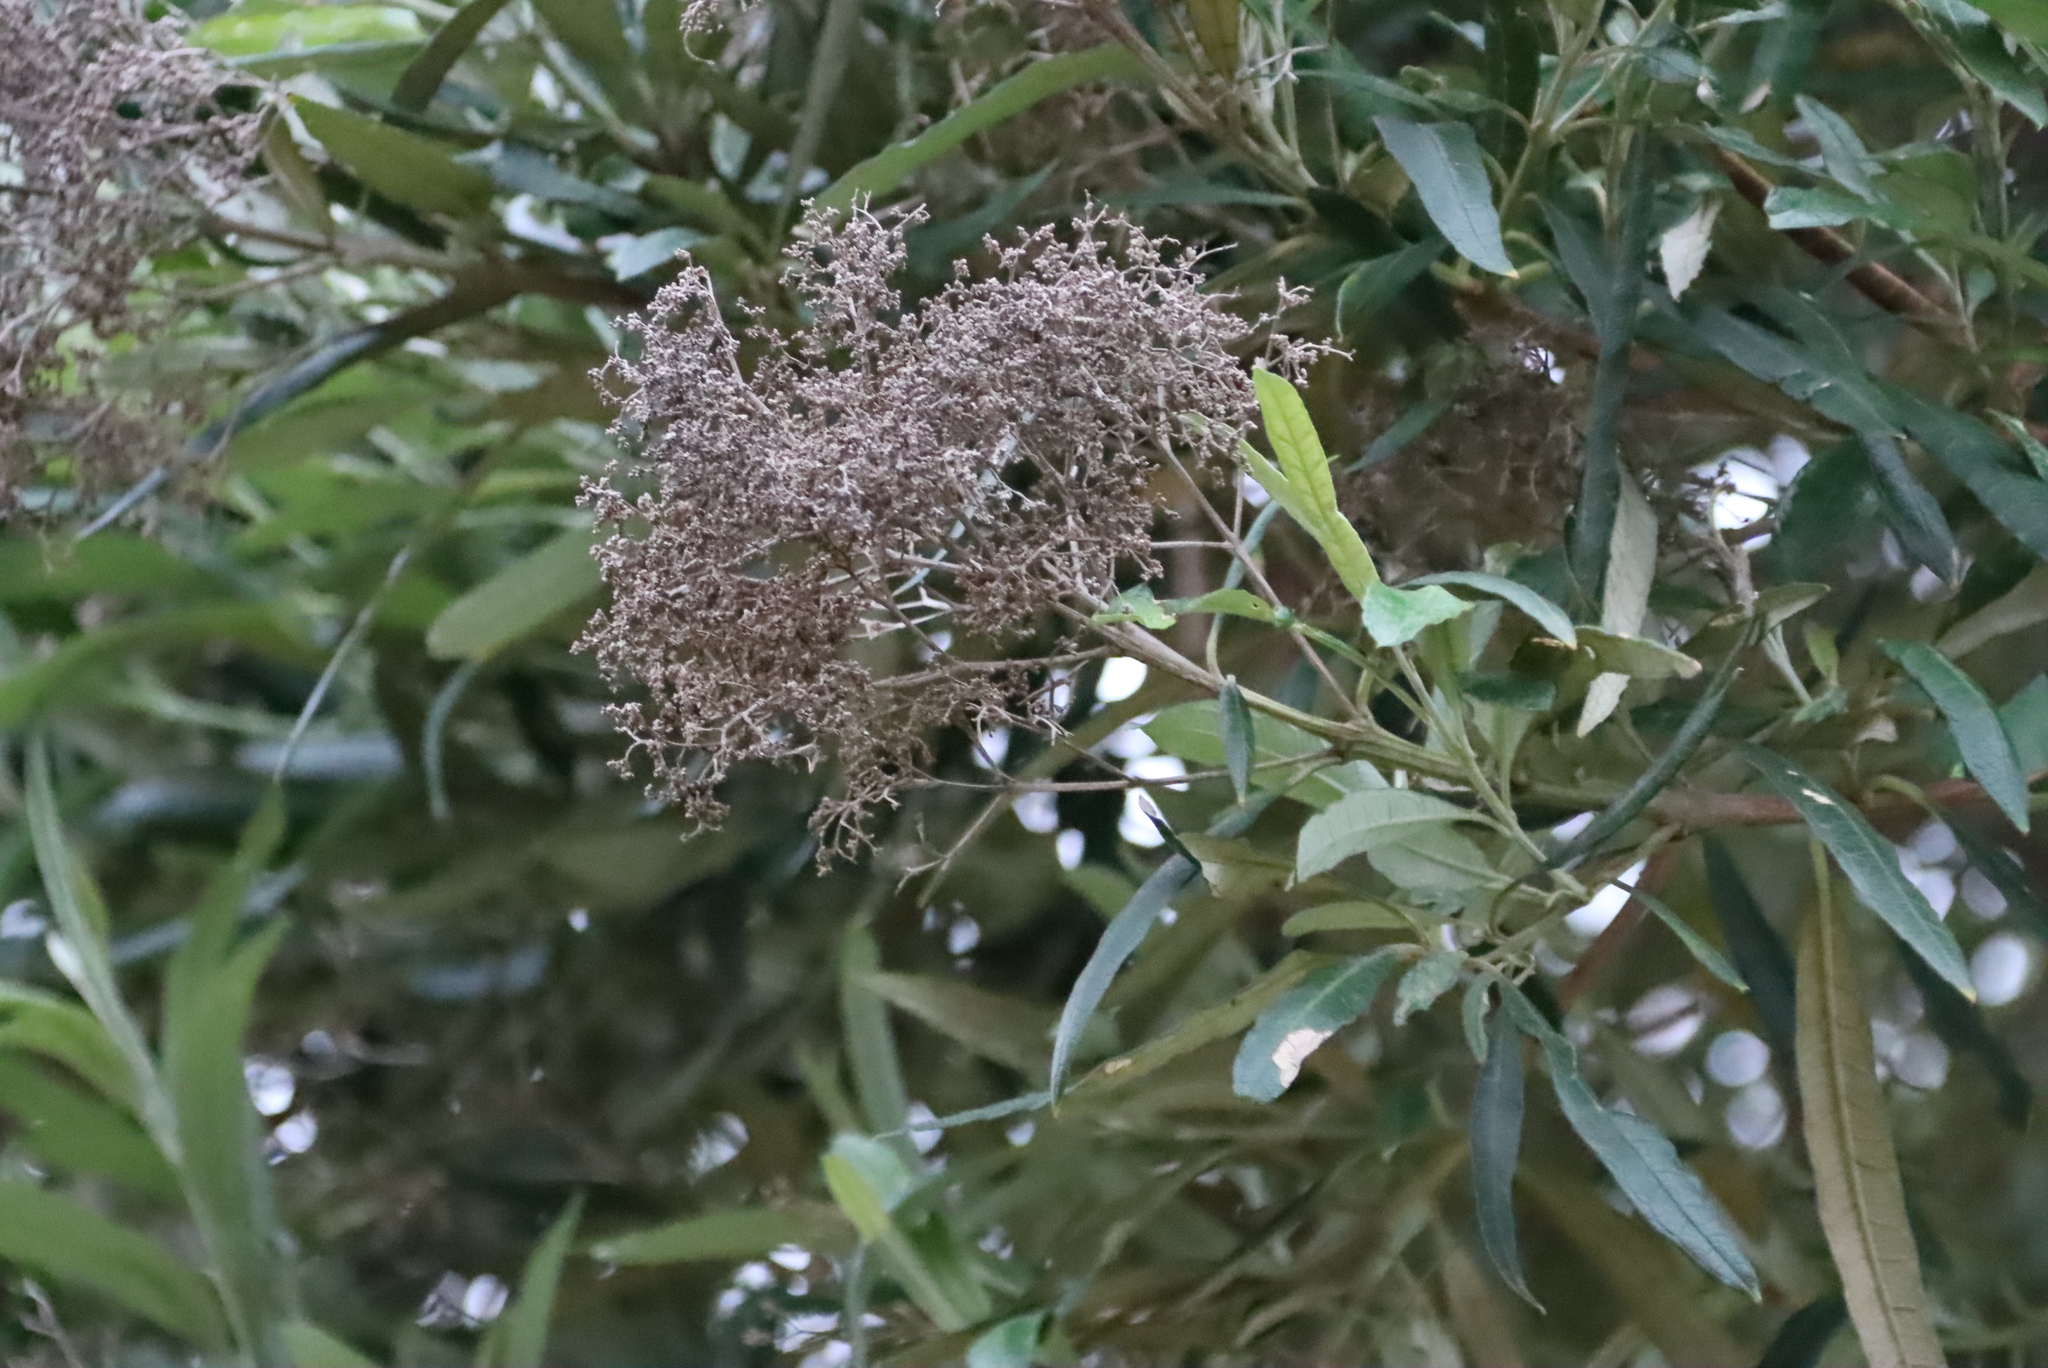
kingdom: Plantae
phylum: Tracheophyta
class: Magnoliopsida
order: Lamiales
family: Scrophulariaceae
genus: Buddleja
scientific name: Buddleja saligna
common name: False olive
